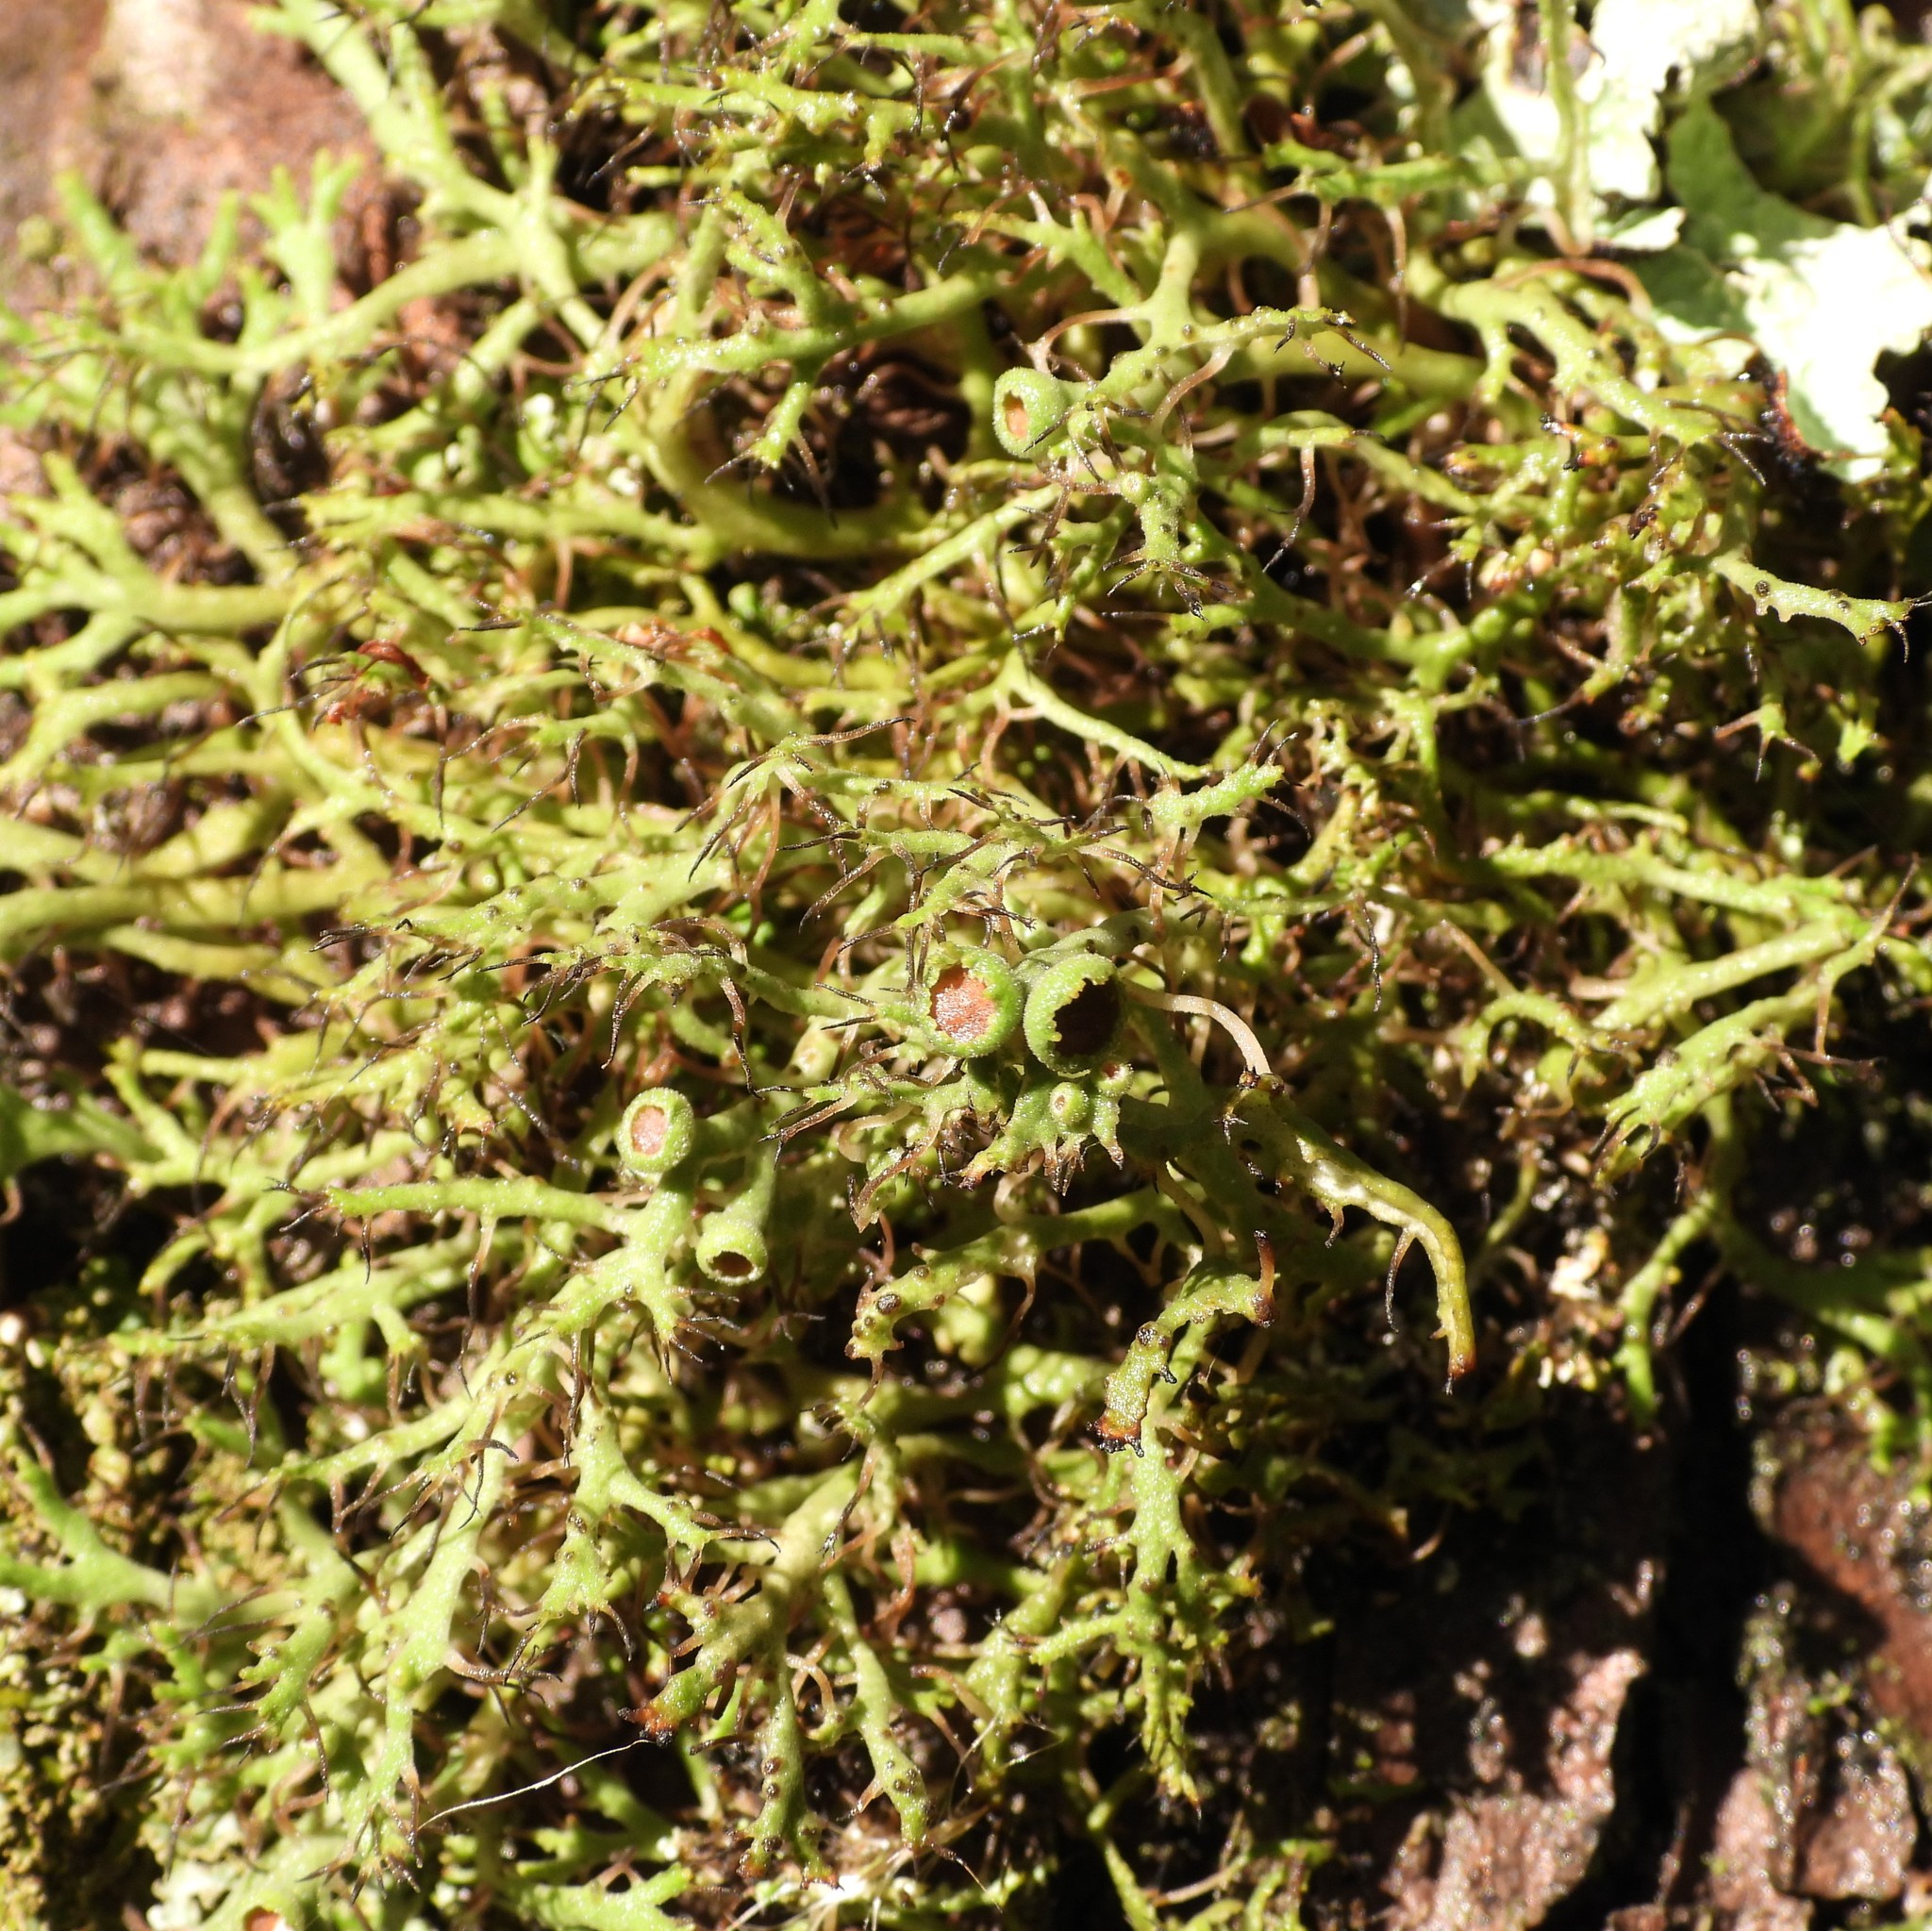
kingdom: Fungi
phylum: Ascomycota
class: Lecanoromycetes
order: Caliciales
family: Physciaceae
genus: Anaptychia
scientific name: Anaptychia ciliaris
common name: Great ciliated lichen
